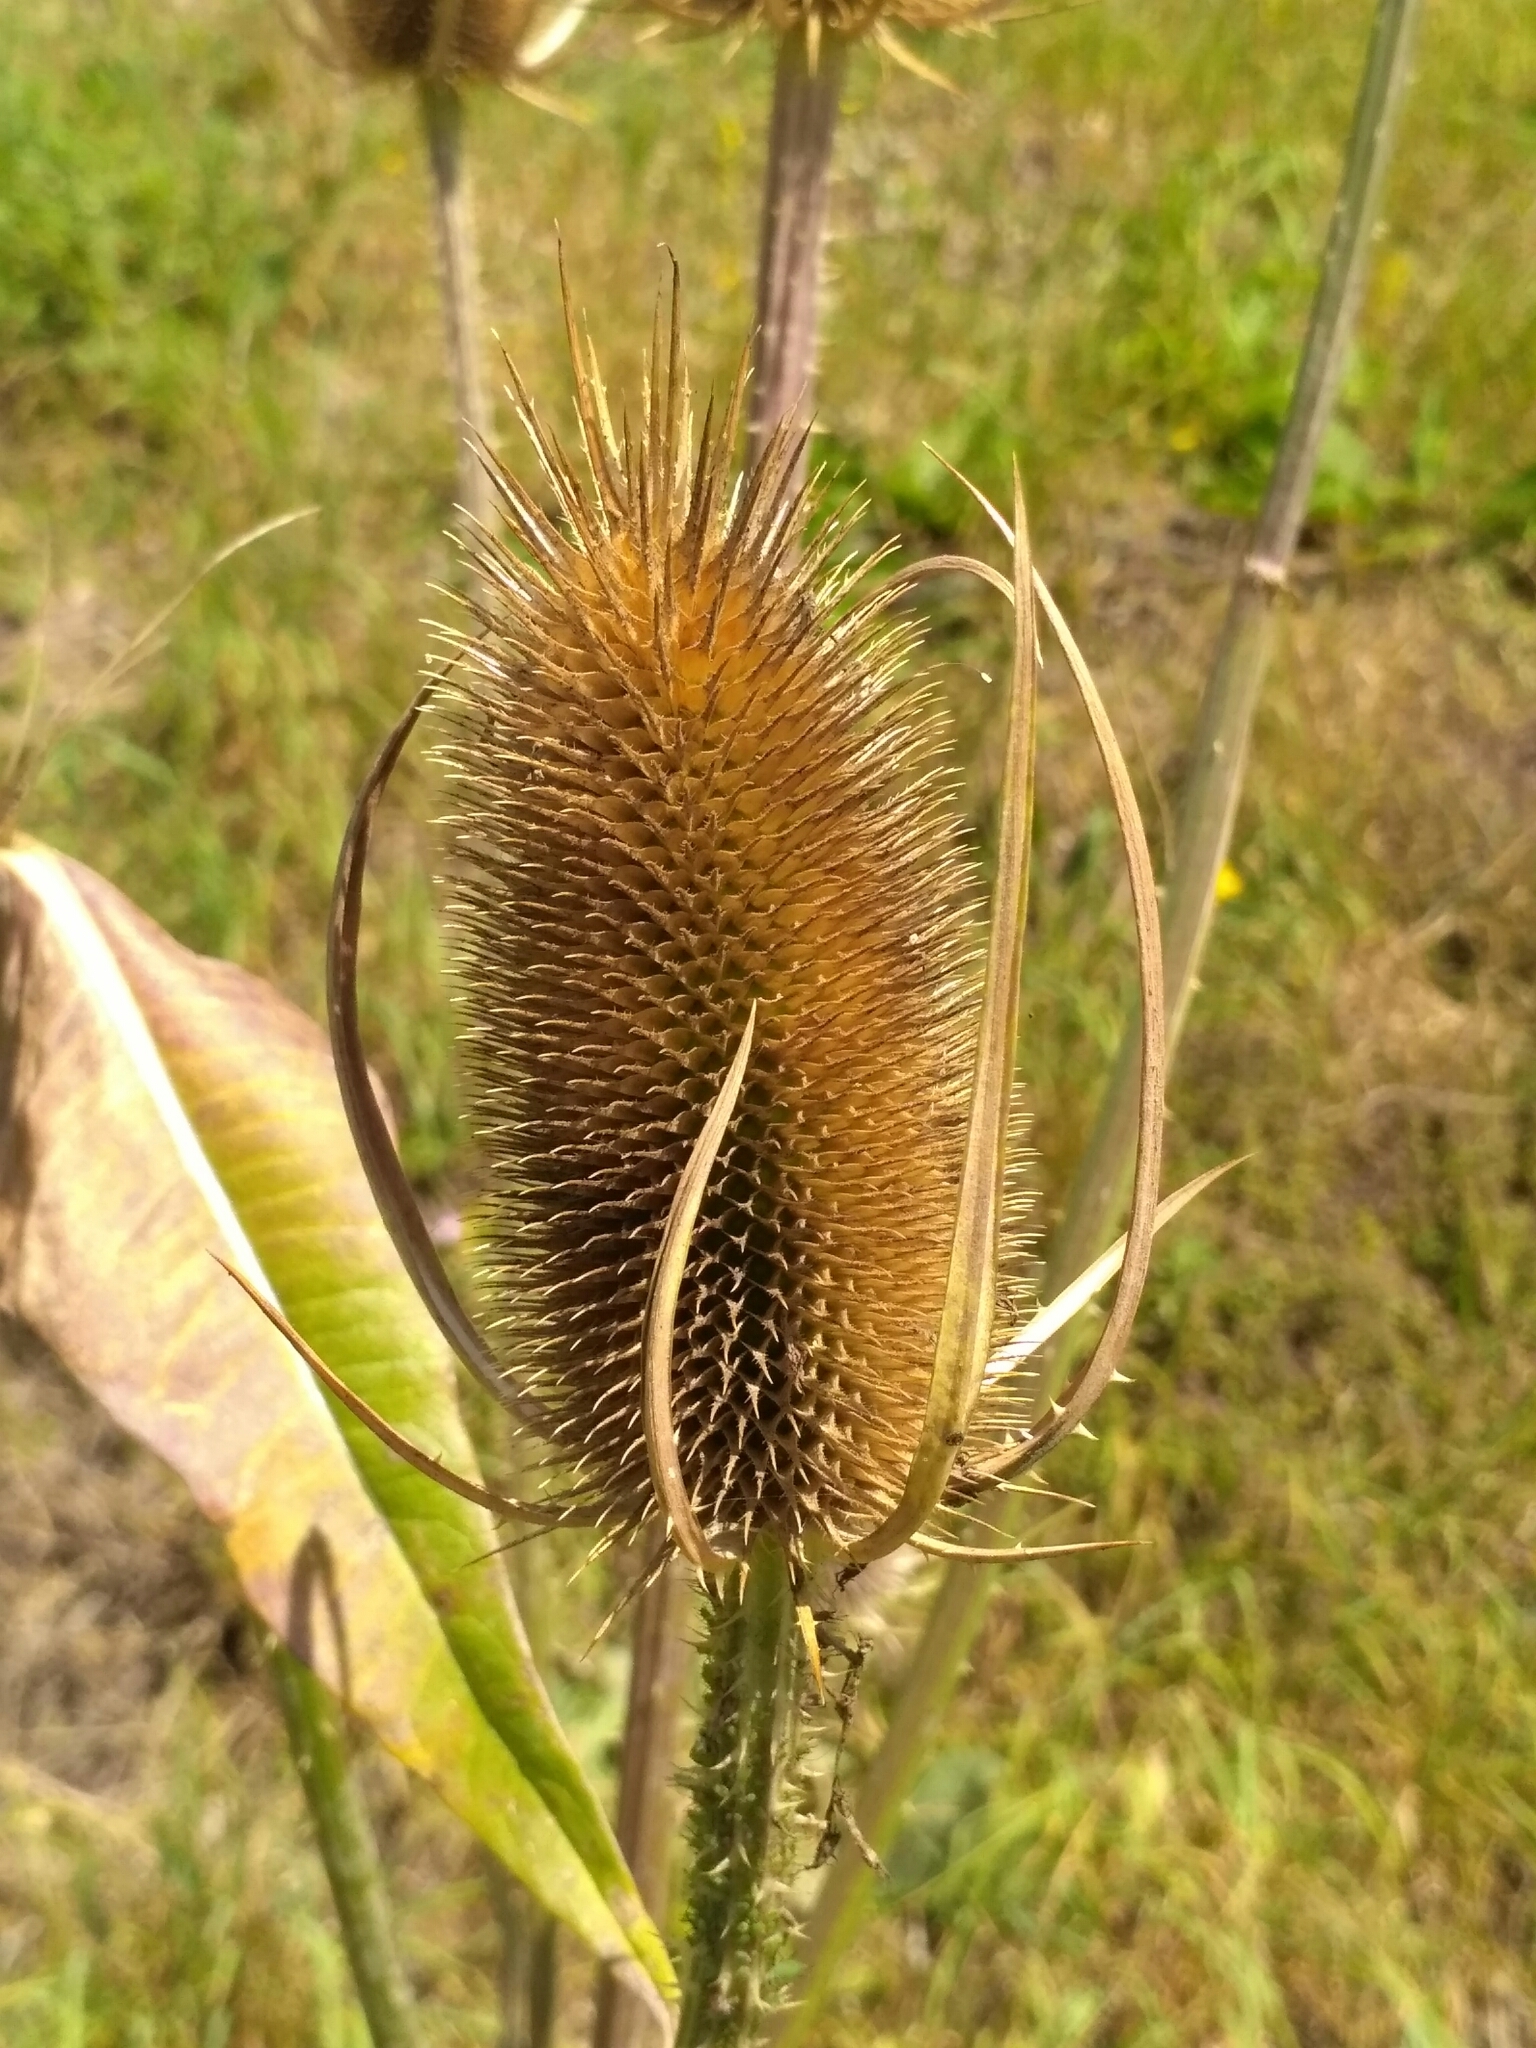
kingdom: Plantae
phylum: Tracheophyta
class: Magnoliopsida
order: Dipsacales
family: Caprifoliaceae
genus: Dipsacus
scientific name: Dipsacus fullonum
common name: Teasel
